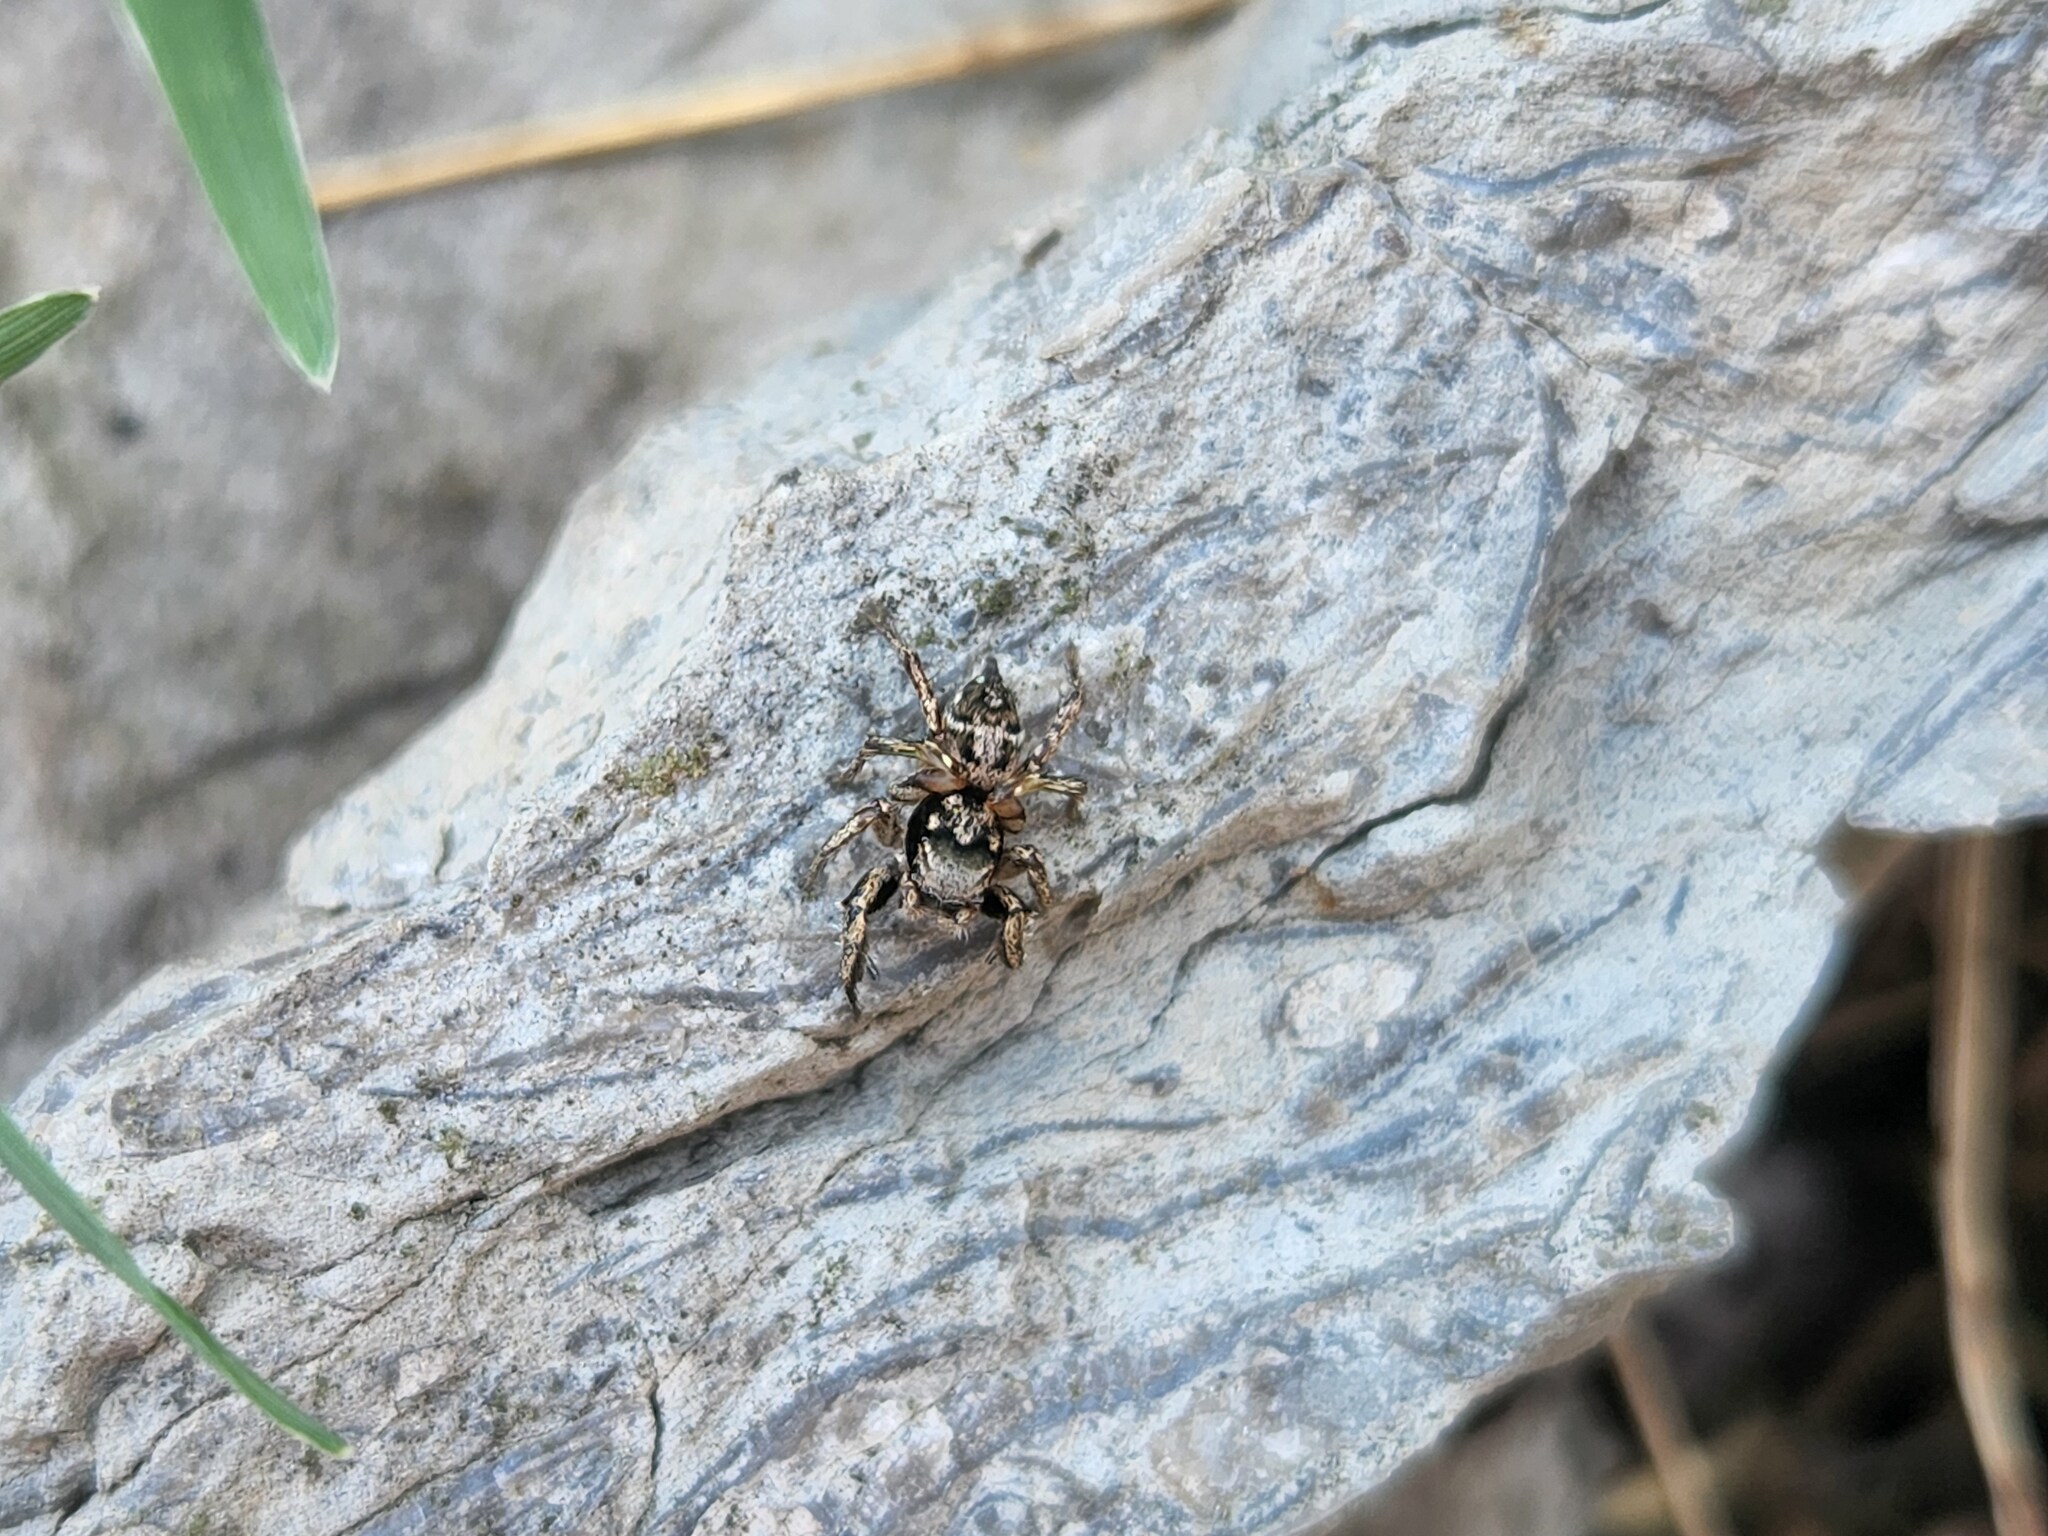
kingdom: Animalia
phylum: Arthropoda
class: Arachnida
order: Araneae
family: Salticidae
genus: Habronattus
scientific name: Habronattus coecatus
